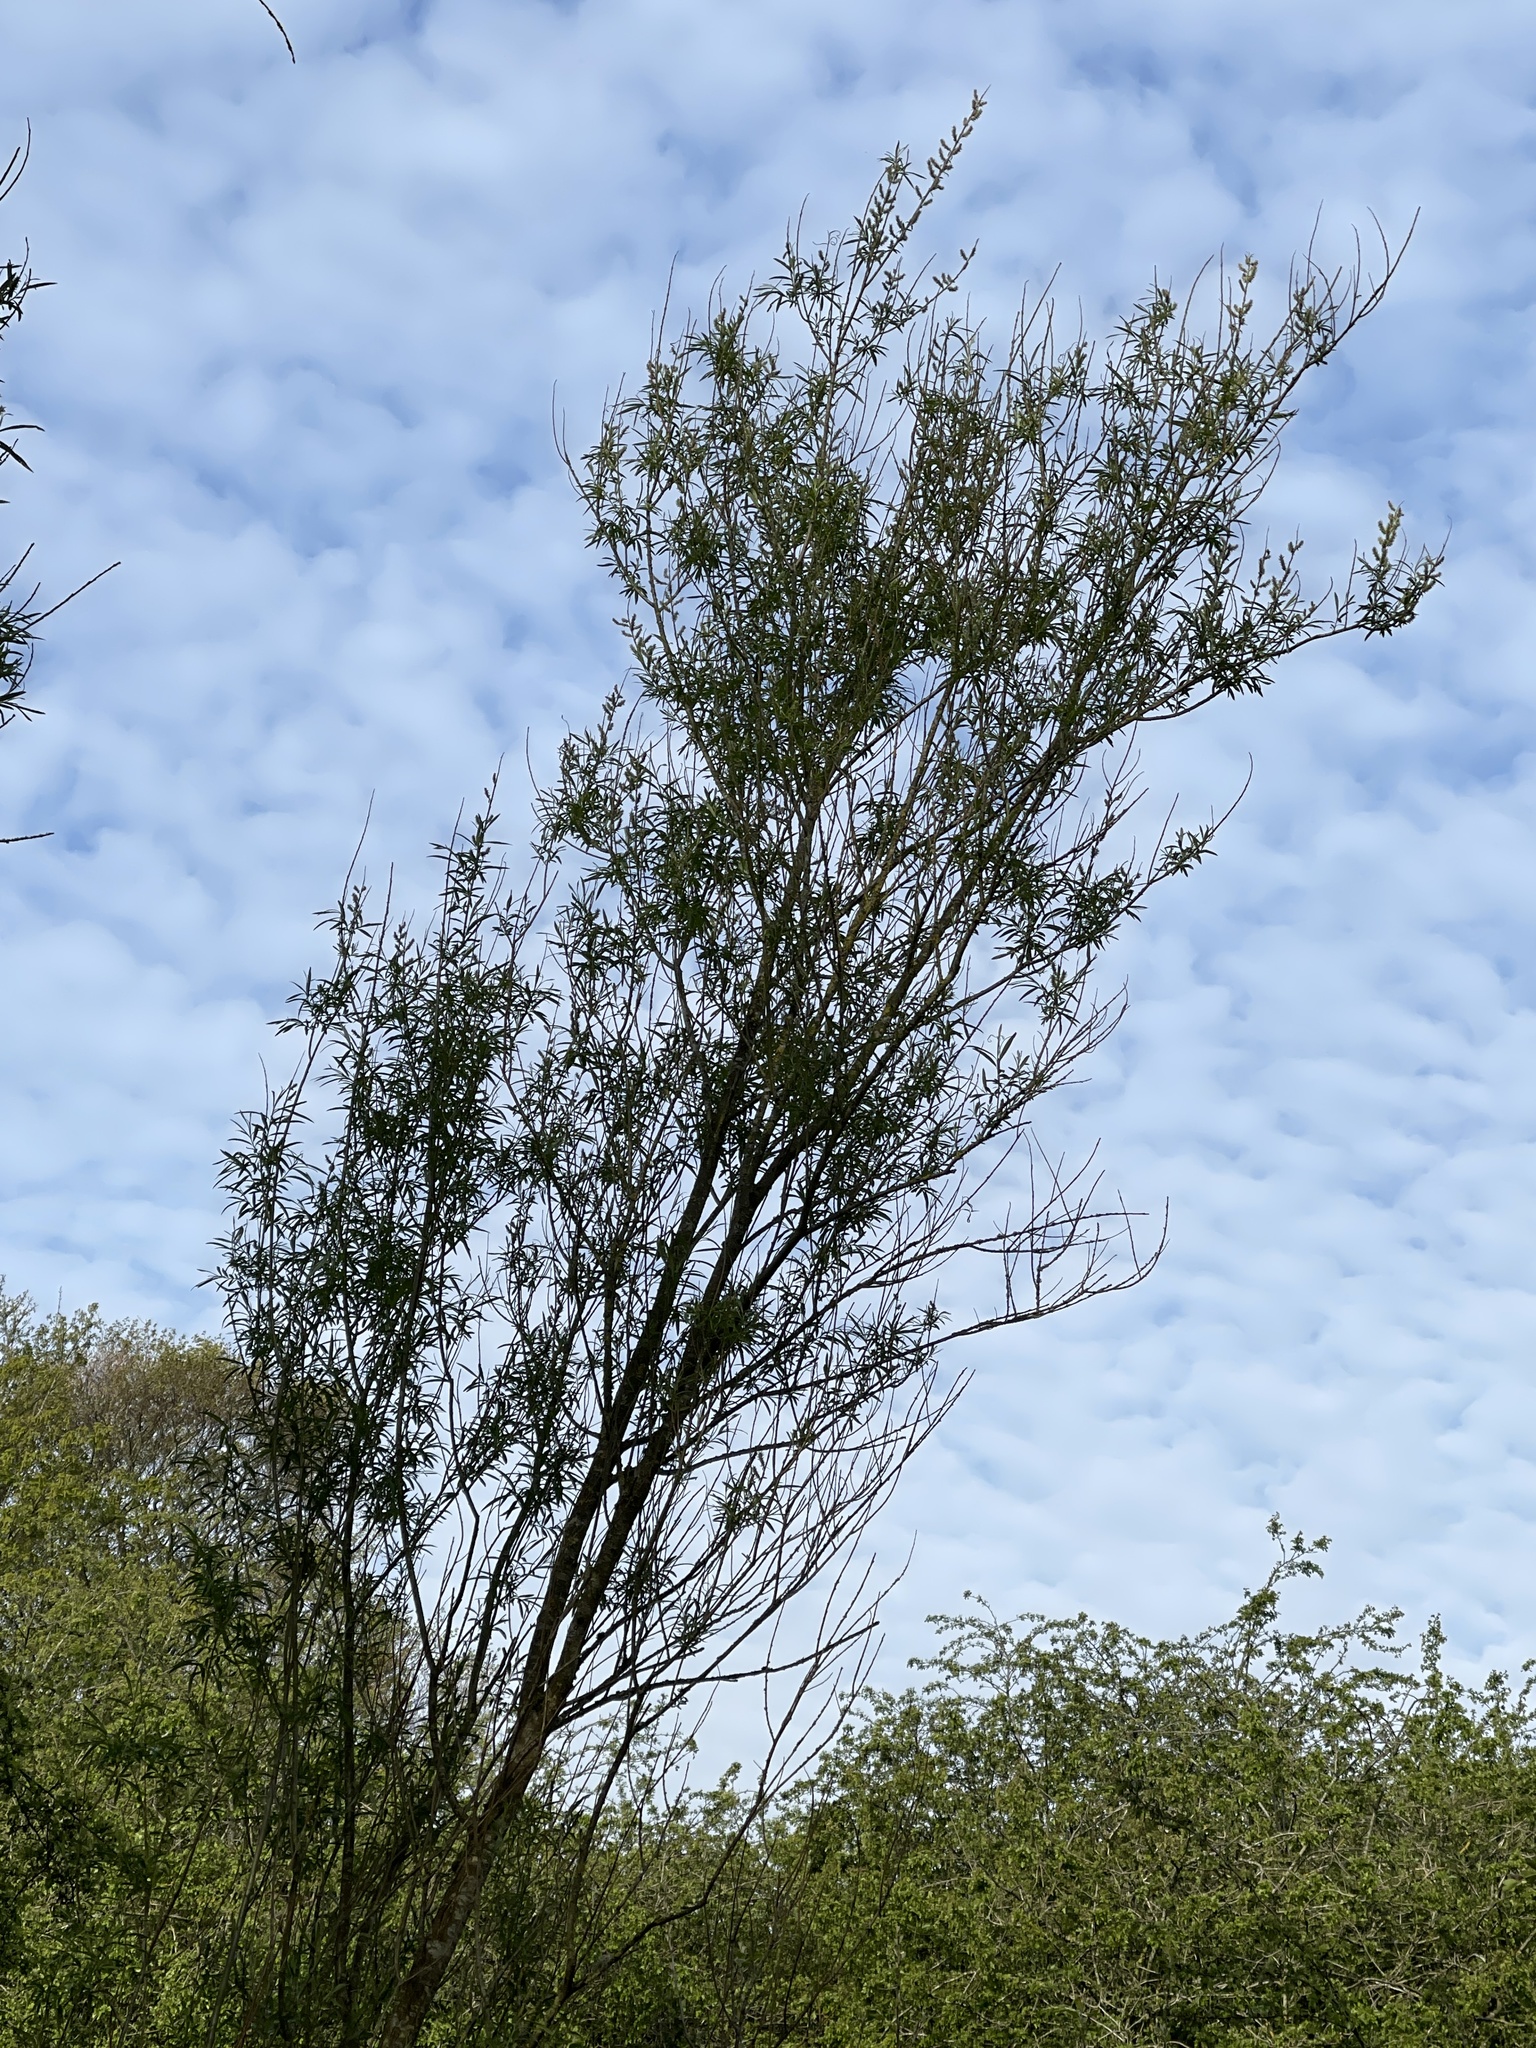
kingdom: Plantae
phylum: Tracheophyta
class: Magnoliopsida
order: Malpighiales
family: Salicaceae
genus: Salix
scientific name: Salix viminalis
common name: Osier
